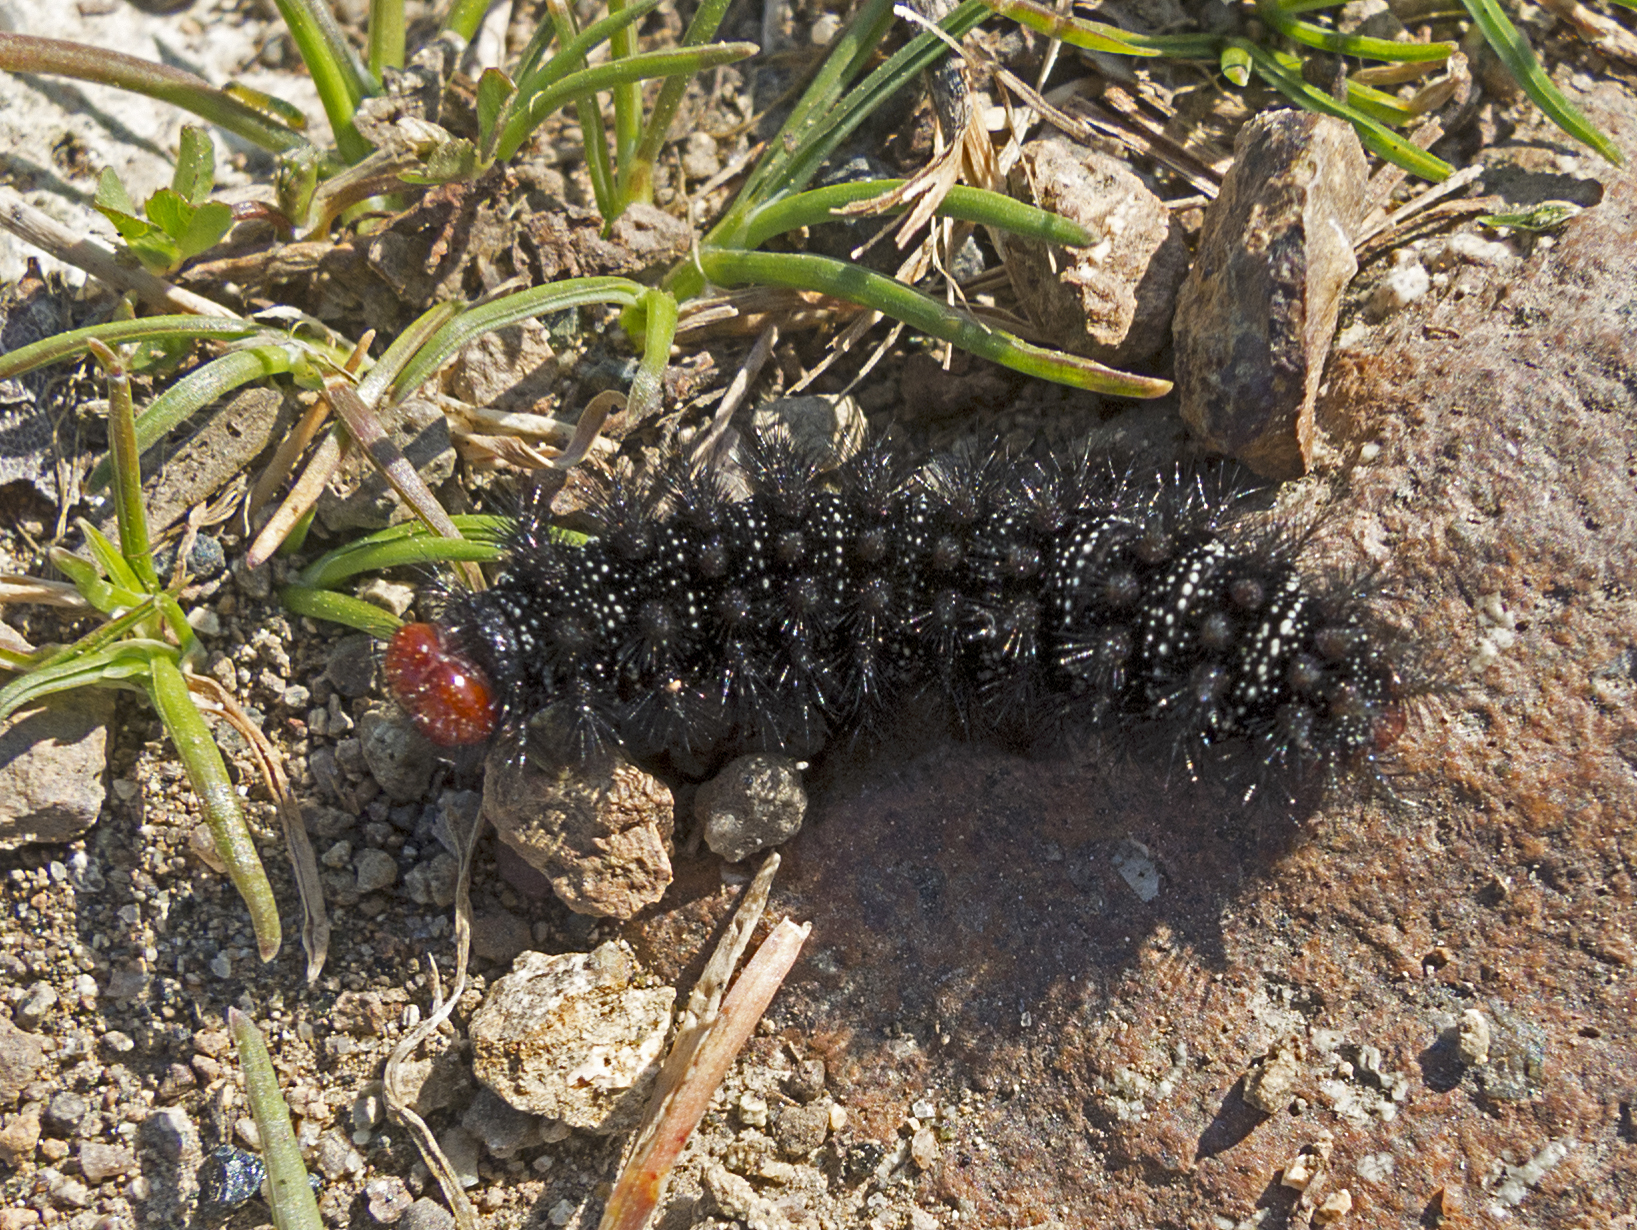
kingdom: Animalia
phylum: Arthropoda
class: Insecta
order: Lepidoptera
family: Nymphalidae
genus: Melitaea
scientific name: Melitaea cinxia
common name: Glanville fritillary
